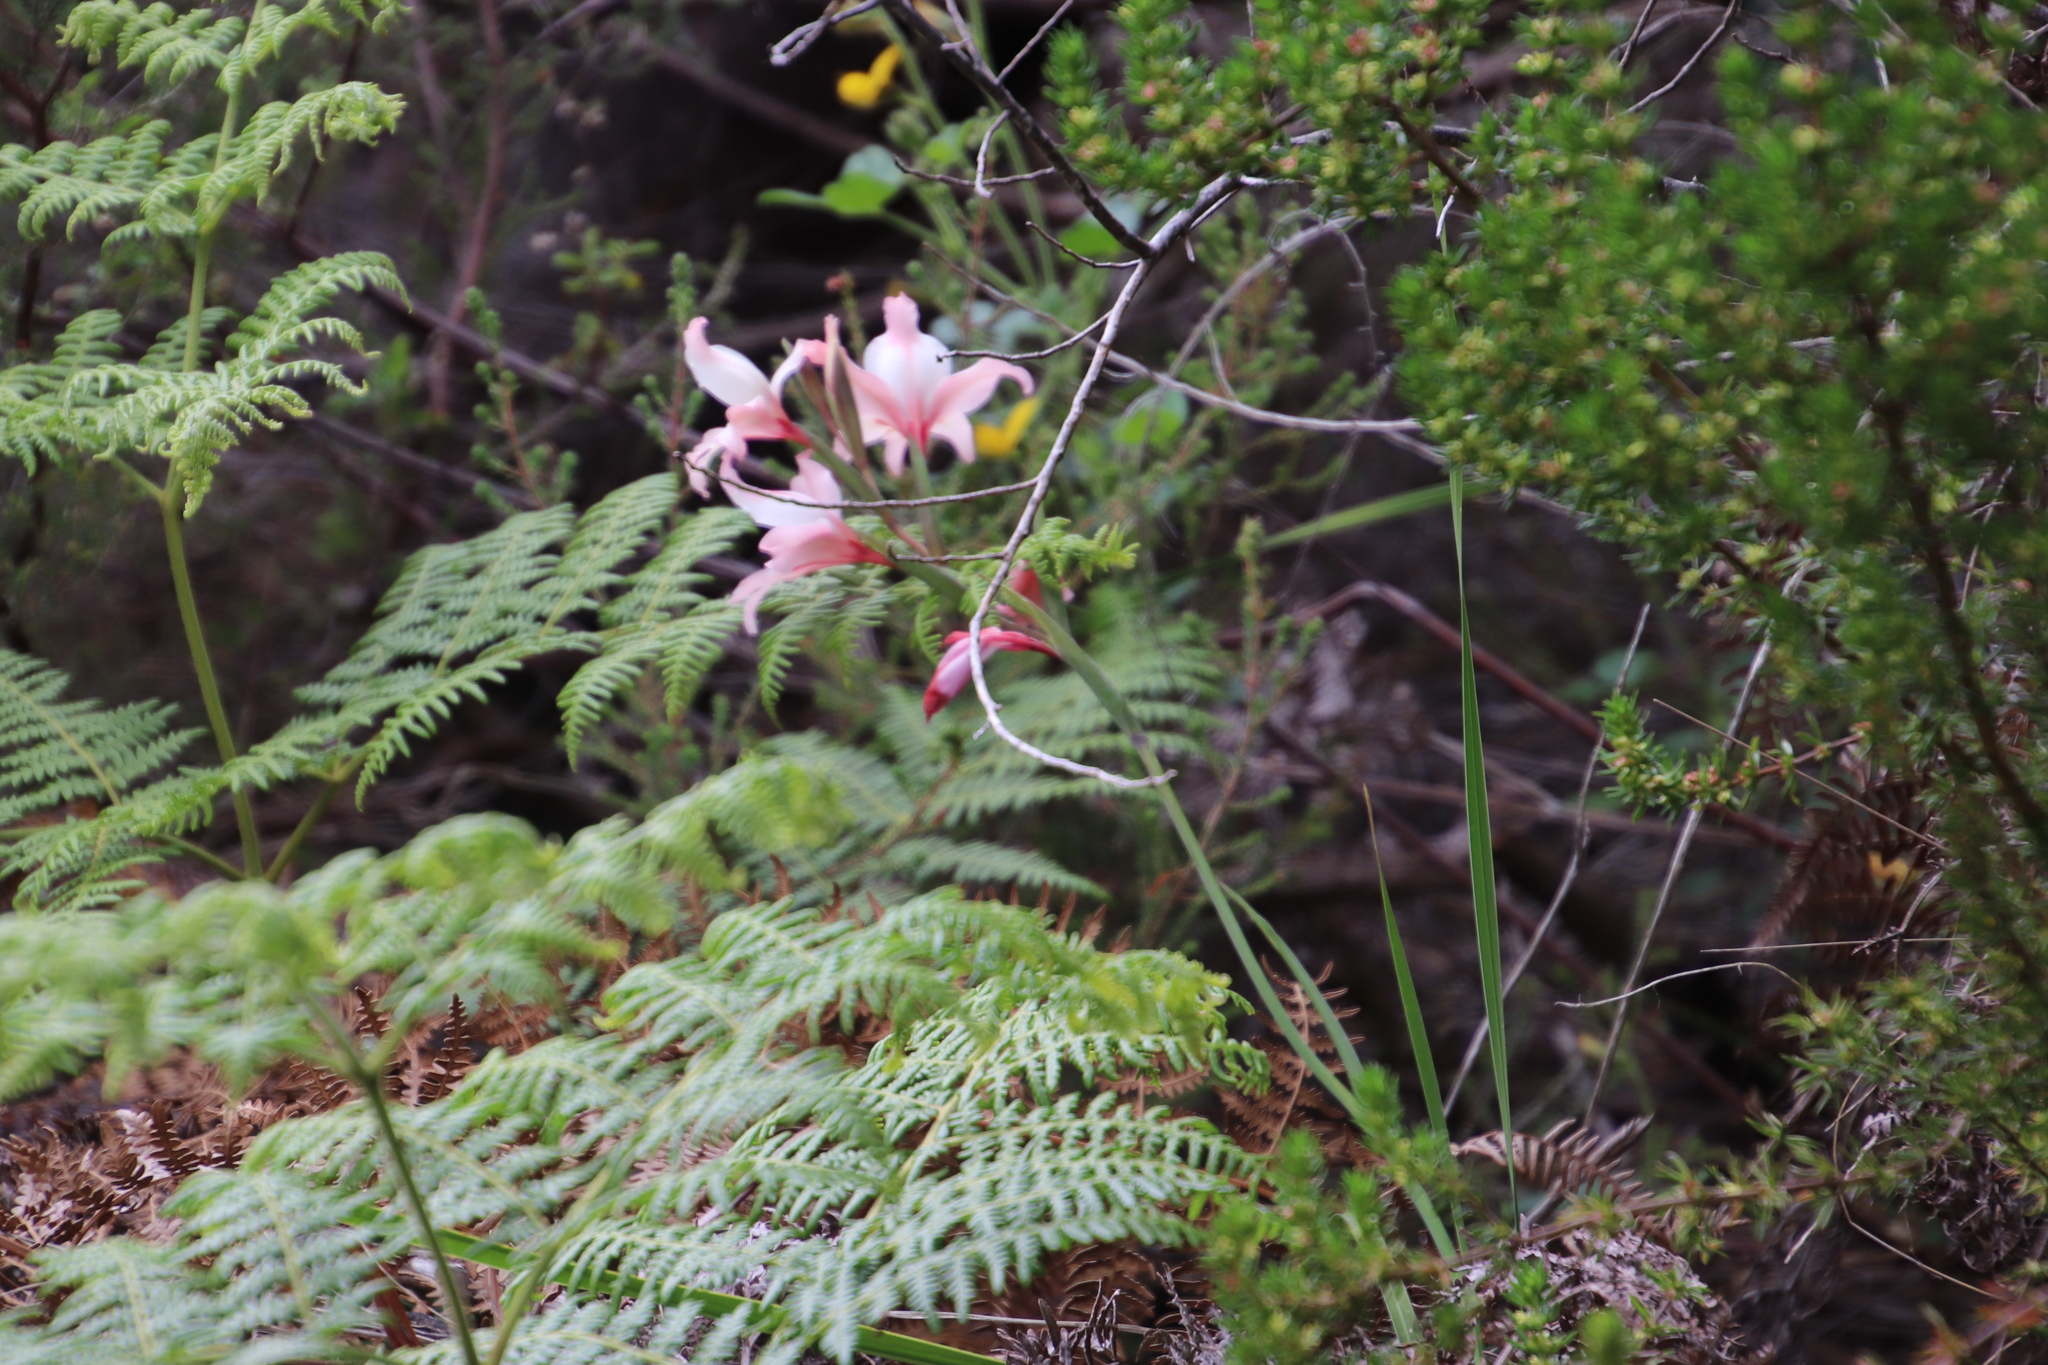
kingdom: Plantae
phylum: Tracheophyta
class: Liliopsida
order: Asparagales
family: Iridaceae
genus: Gladiolus
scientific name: Gladiolus carneus
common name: Painted-lady
